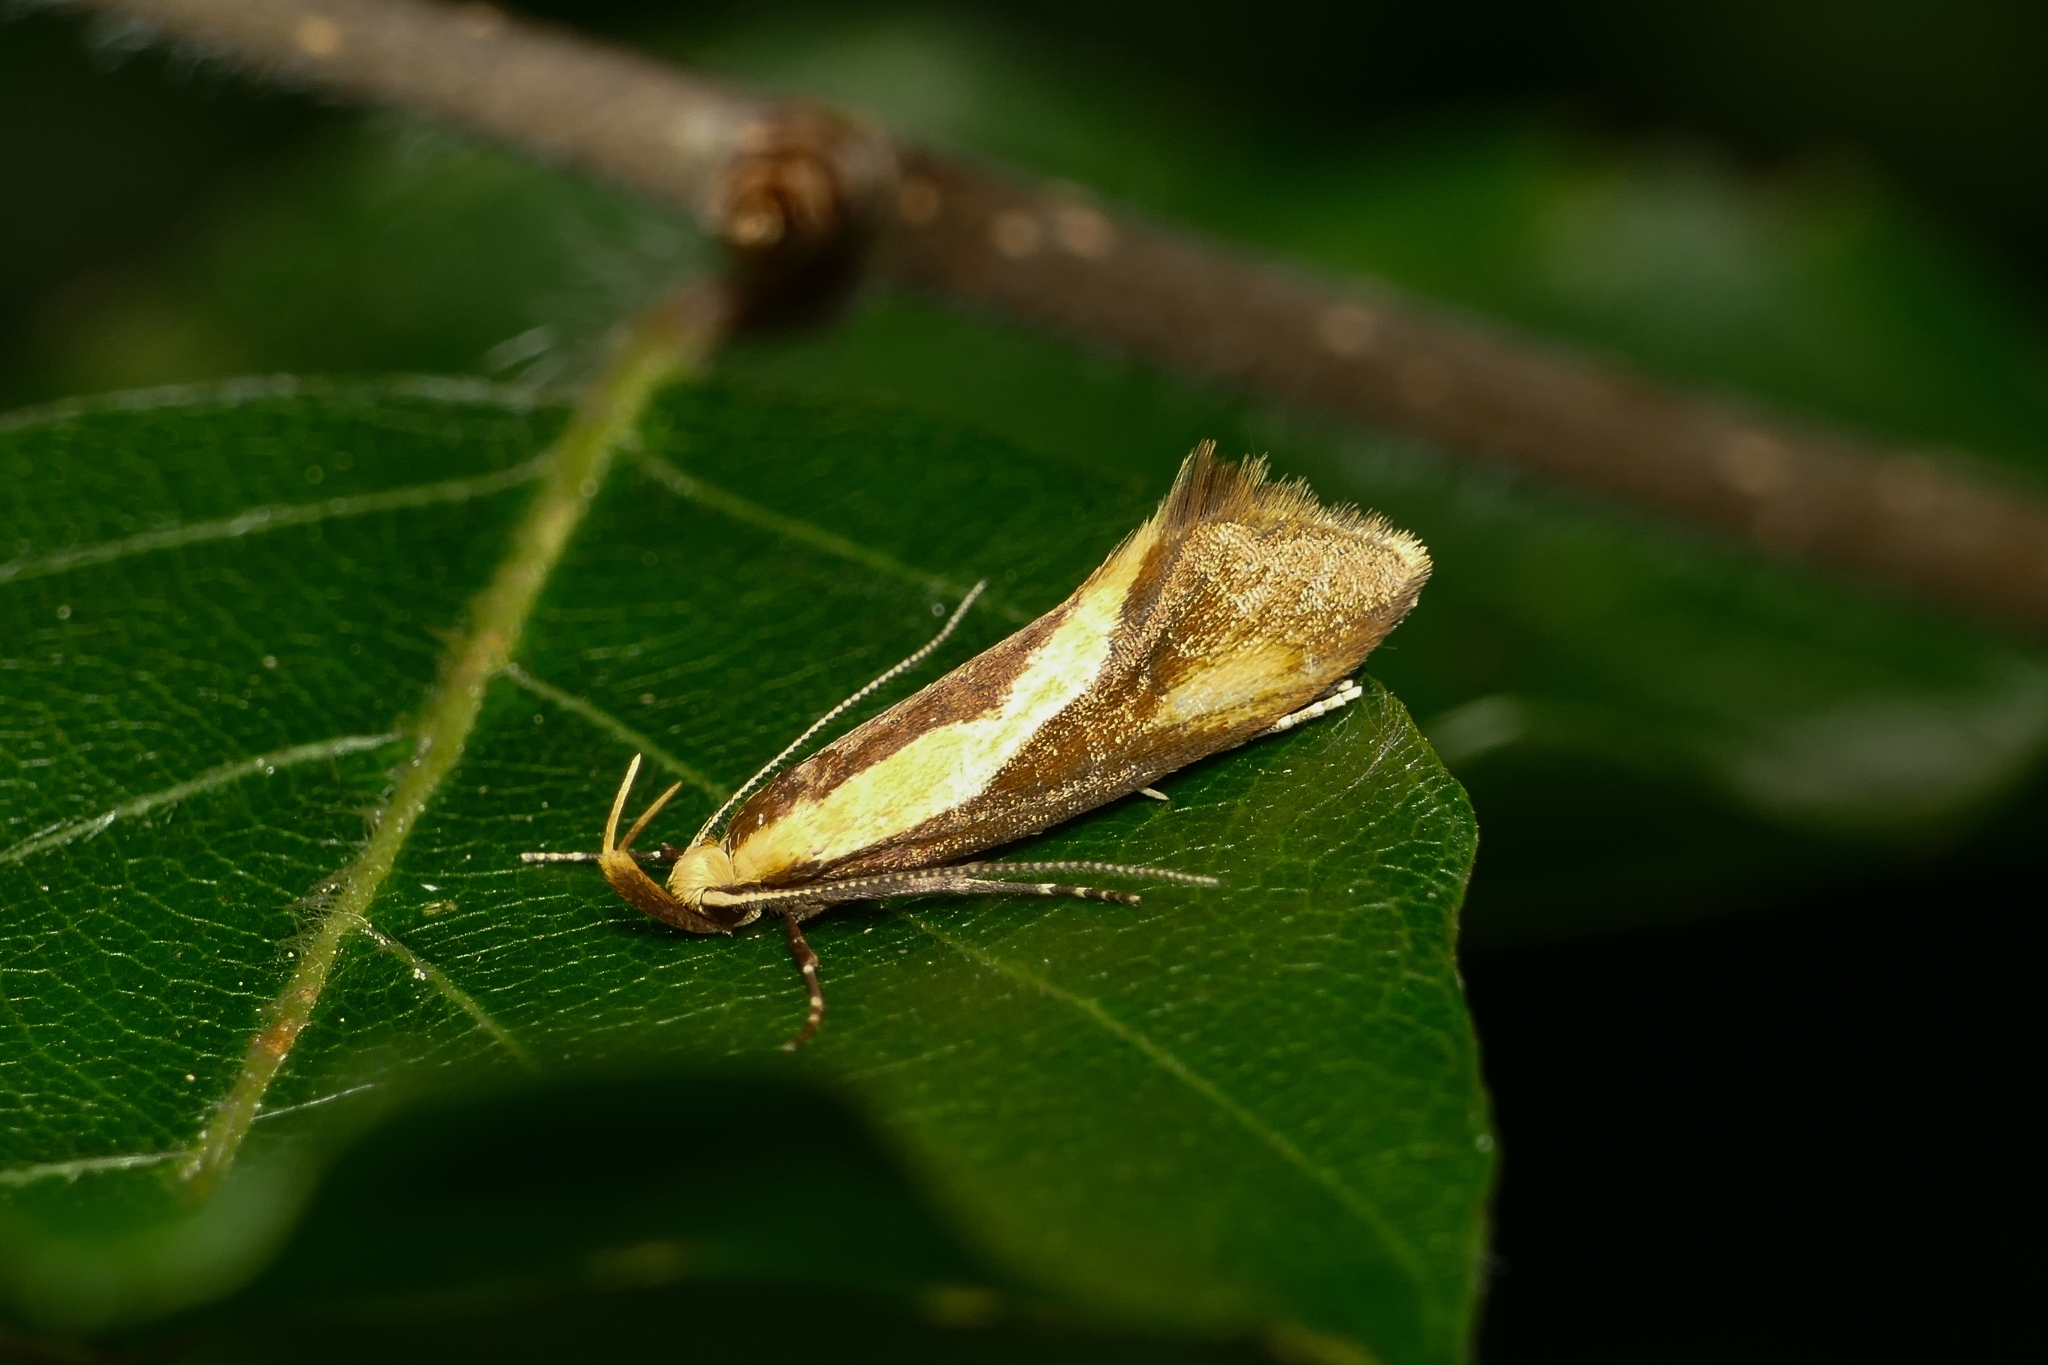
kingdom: Animalia
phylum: Arthropoda
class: Insecta
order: Lepidoptera
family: Oecophoridae
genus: Harpella
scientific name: Harpella forficella
